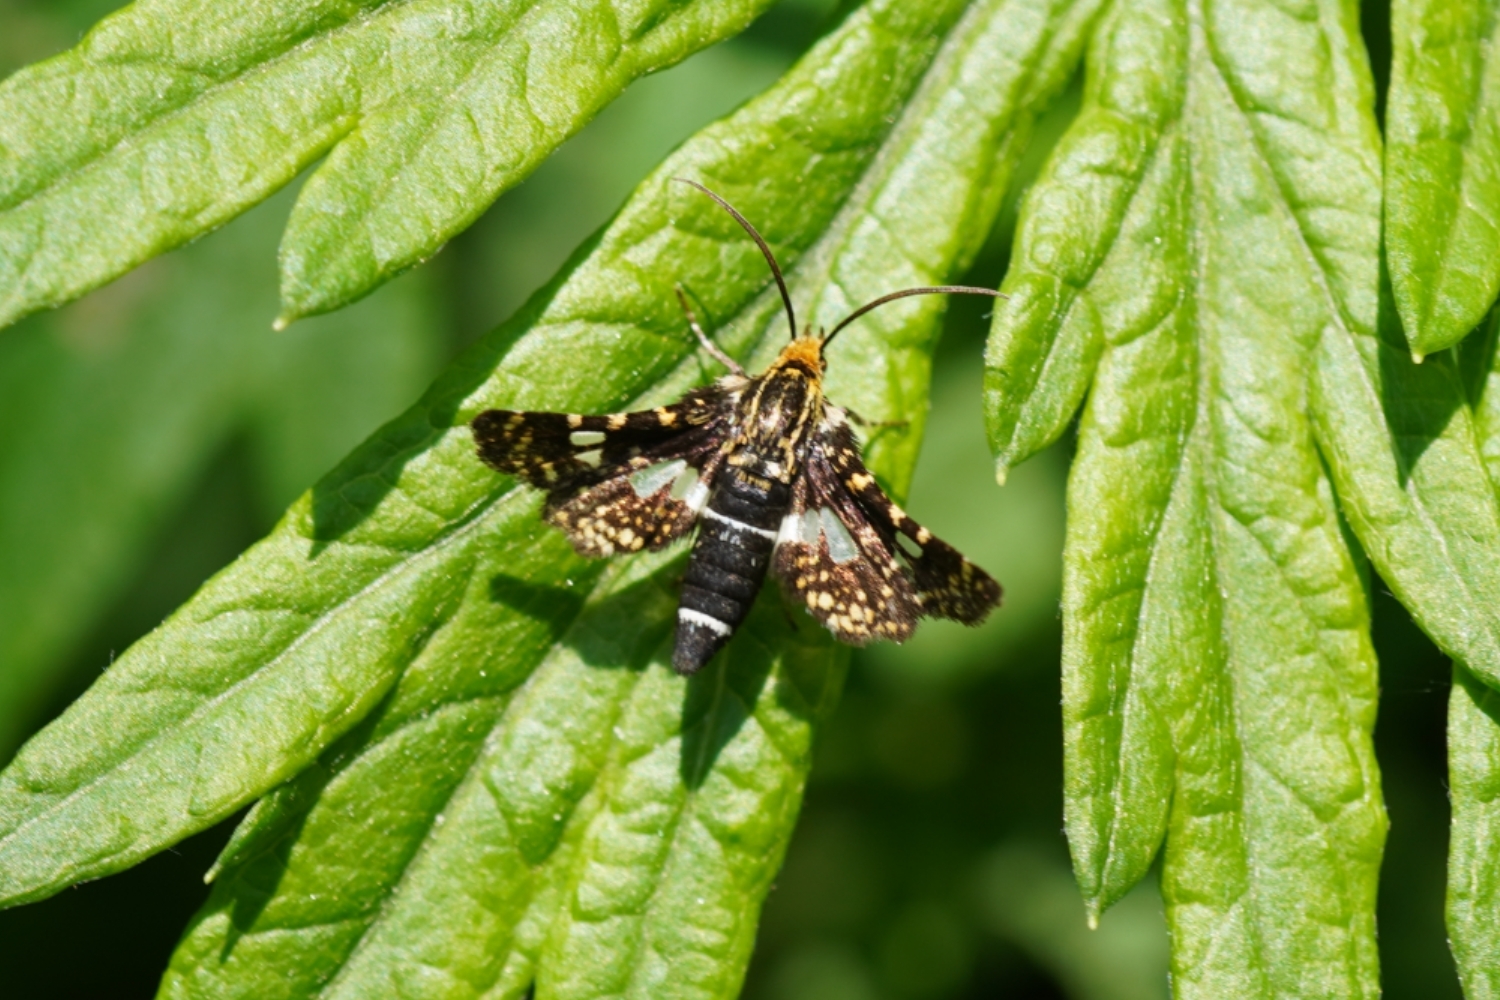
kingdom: Animalia
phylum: Arthropoda
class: Insecta
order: Lepidoptera
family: Thyrididae
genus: Thyris
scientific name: Thyris fenestrella
